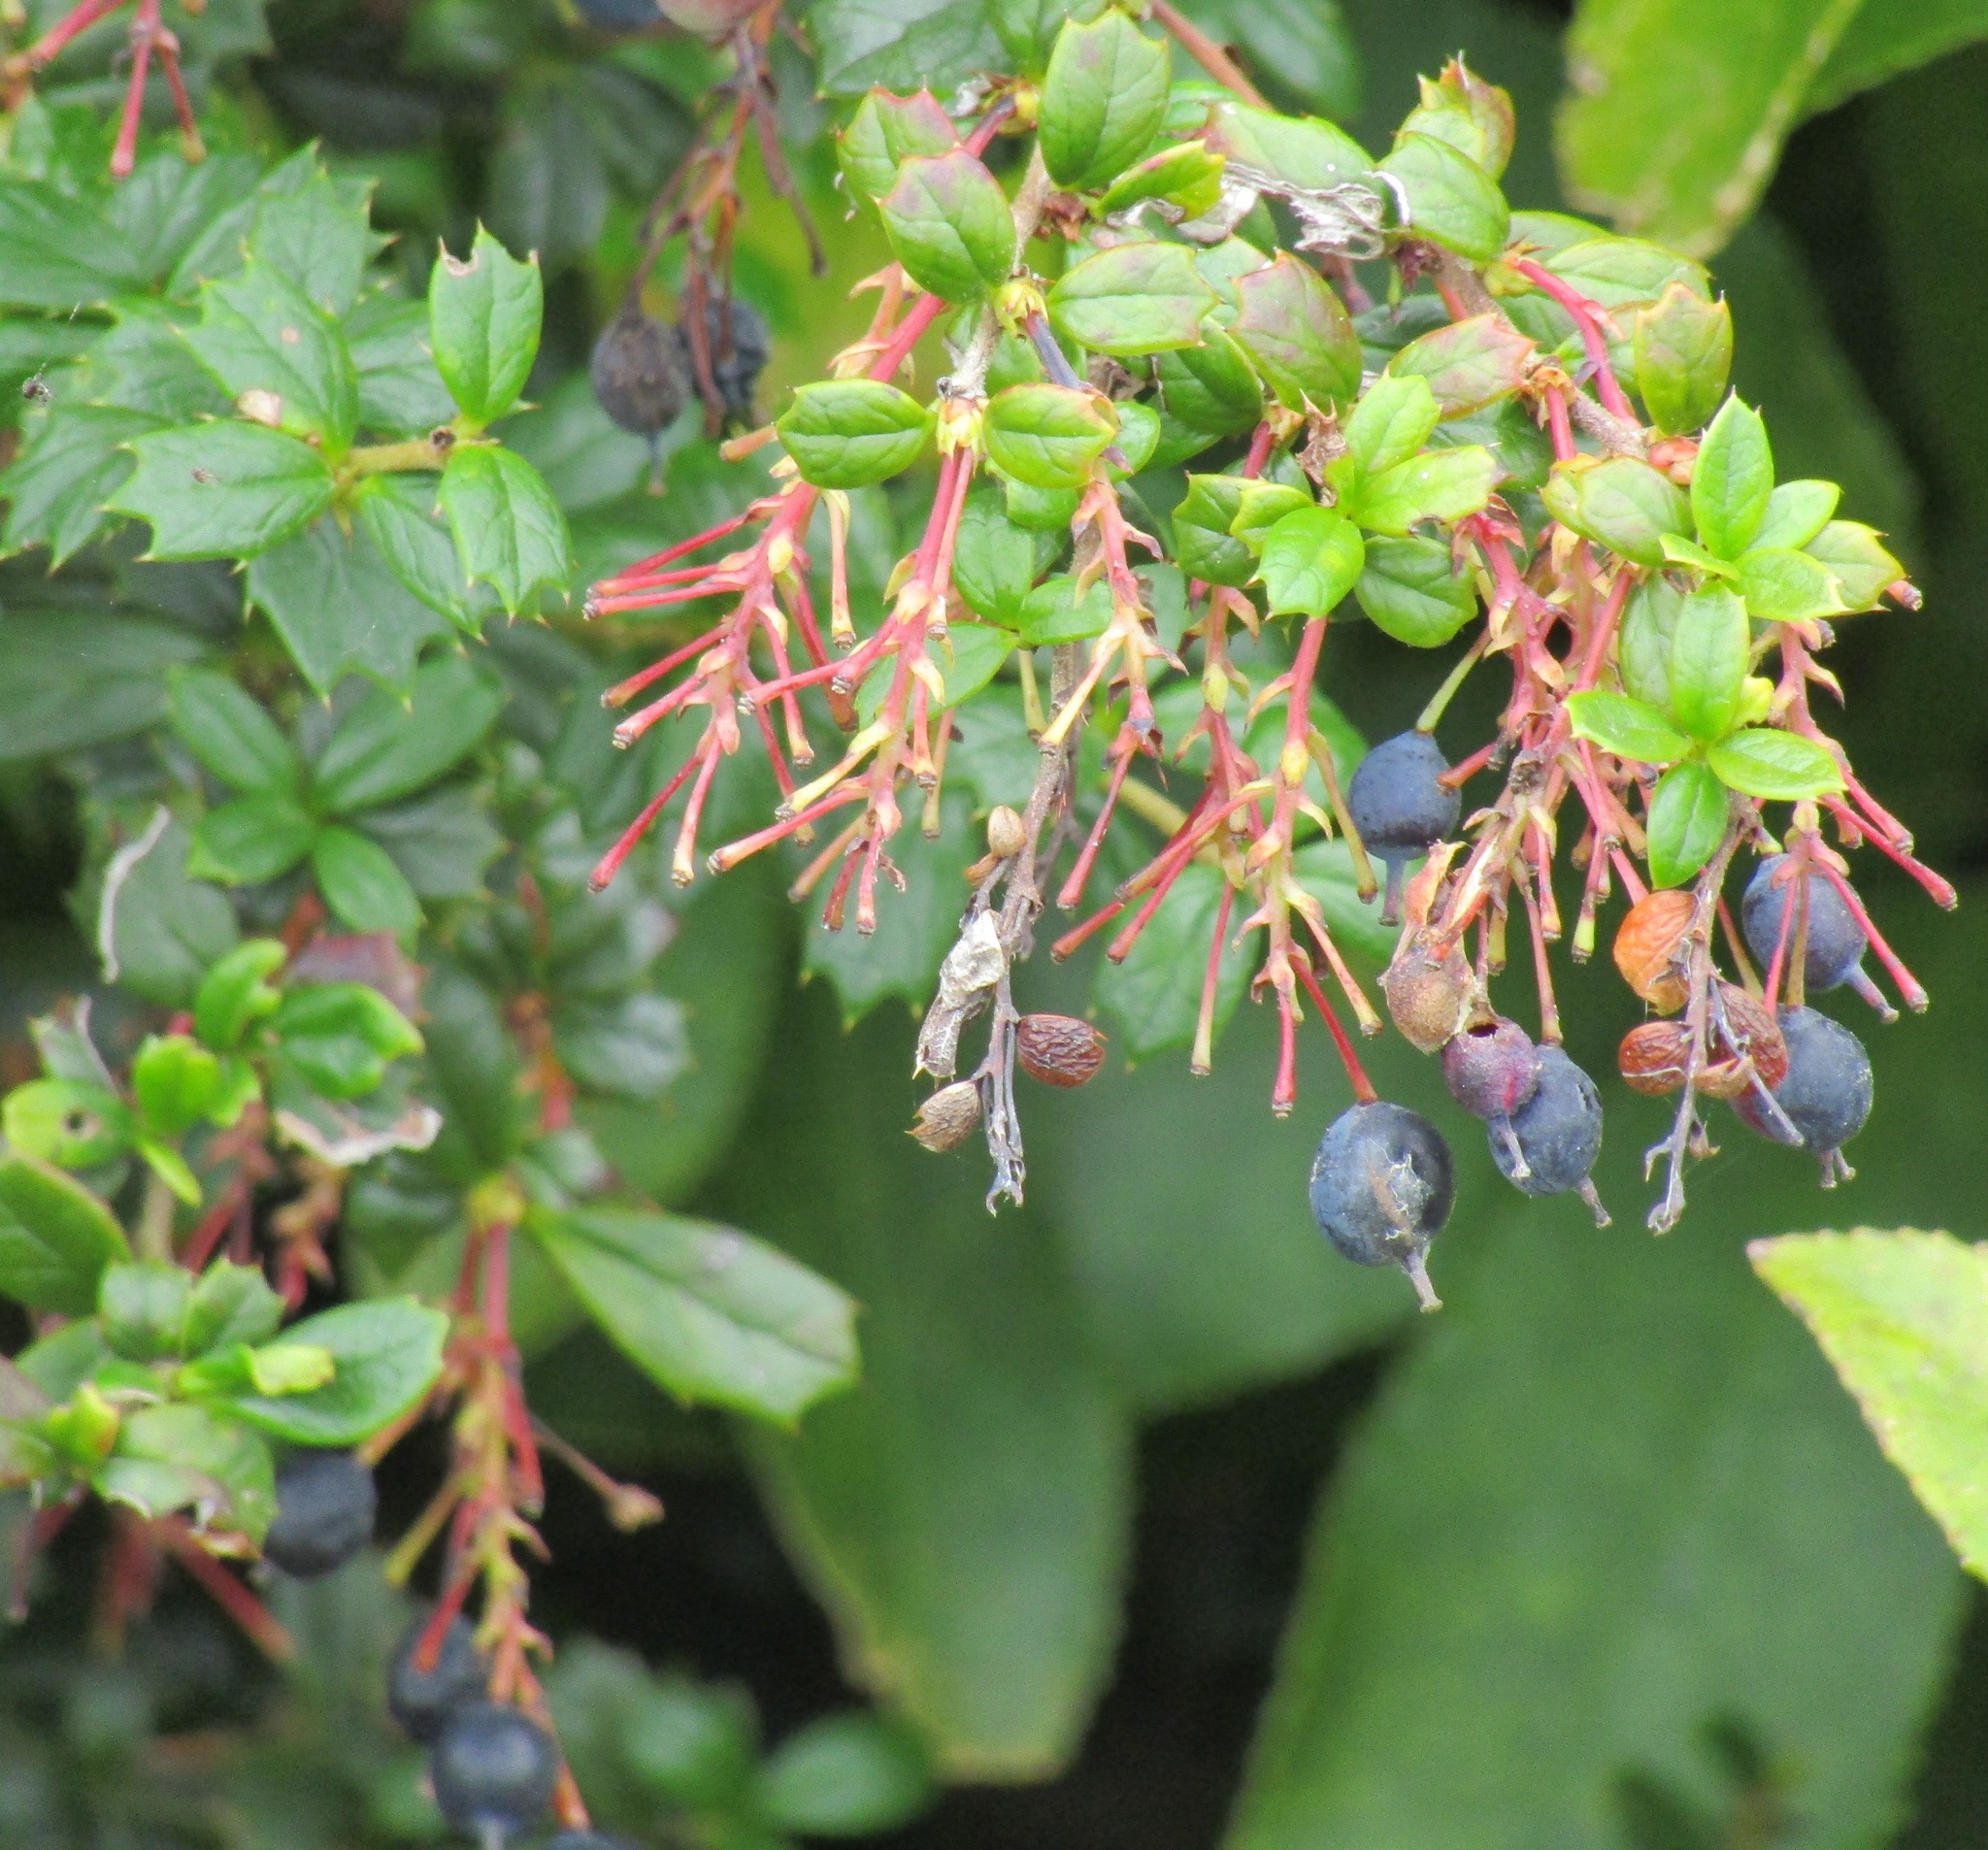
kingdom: Plantae
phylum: Tracheophyta
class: Magnoliopsida
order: Ranunculales
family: Berberidaceae
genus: Berberis
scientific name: Berberis darwinii
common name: Darwin's barberry
